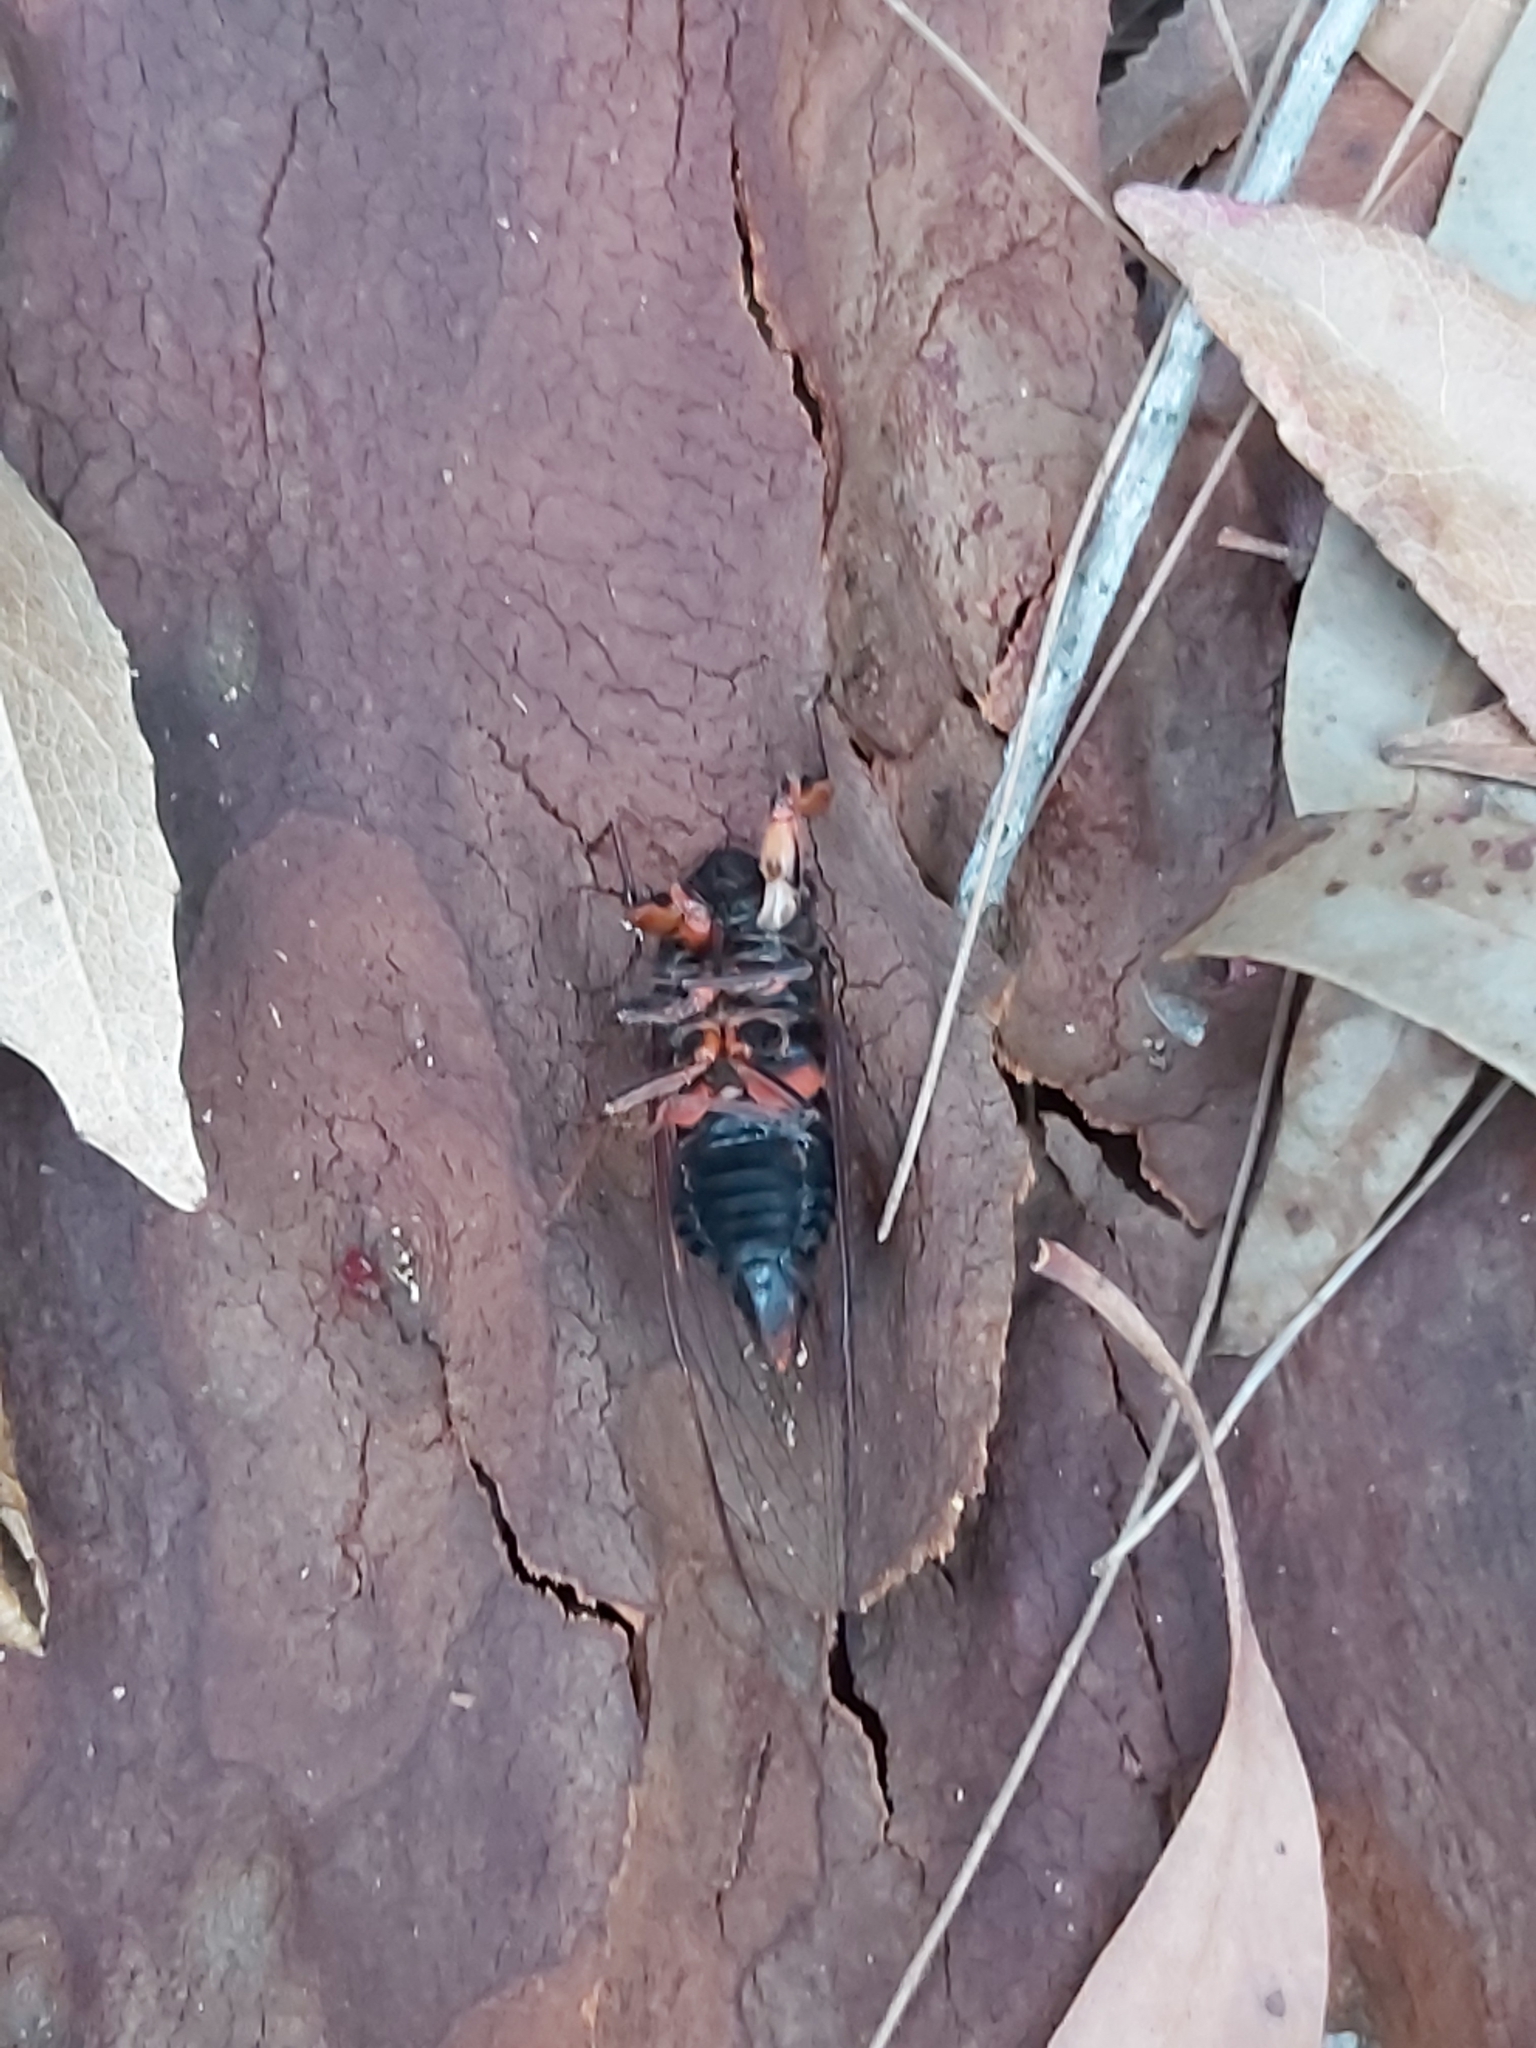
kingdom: Animalia
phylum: Arthropoda
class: Insecta
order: Hemiptera
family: Cicadidae
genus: Yoyetta
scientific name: Yoyetta timothyi
